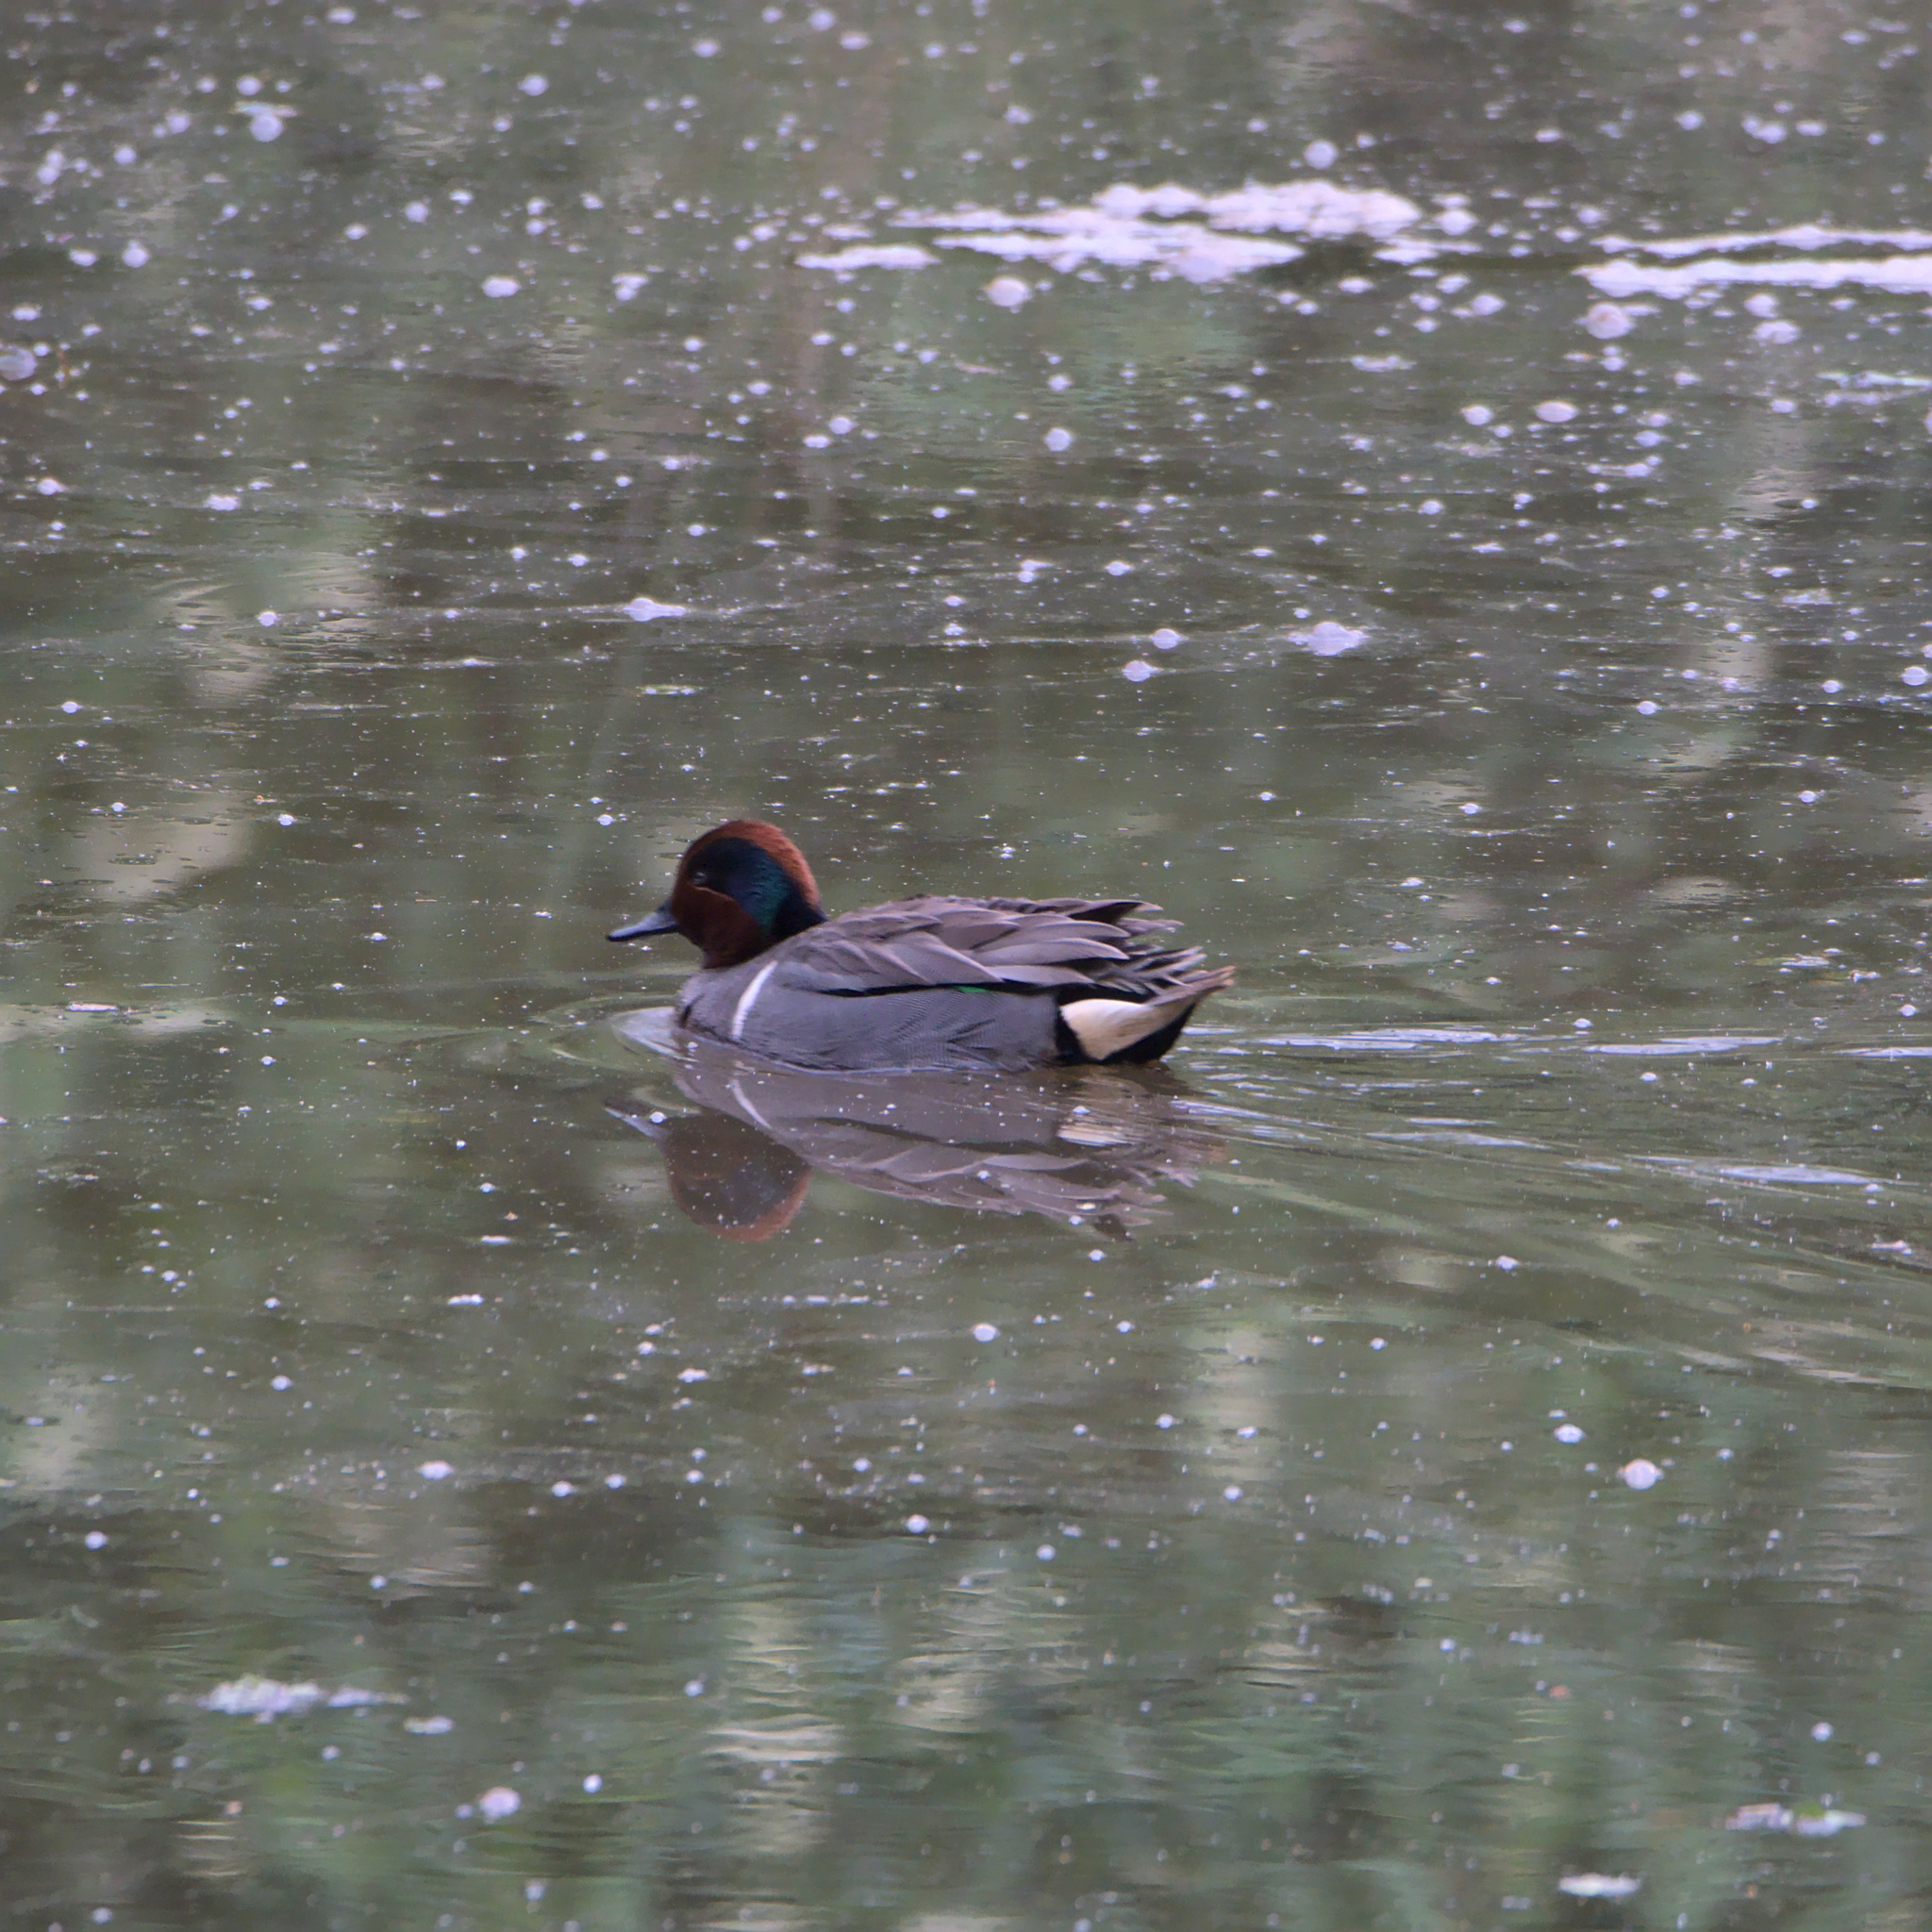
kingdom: Animalia
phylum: Chordata
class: Aves
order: Anseriformes
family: Anatidae
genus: Anas
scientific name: Anas crecca
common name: Eurasian teal
